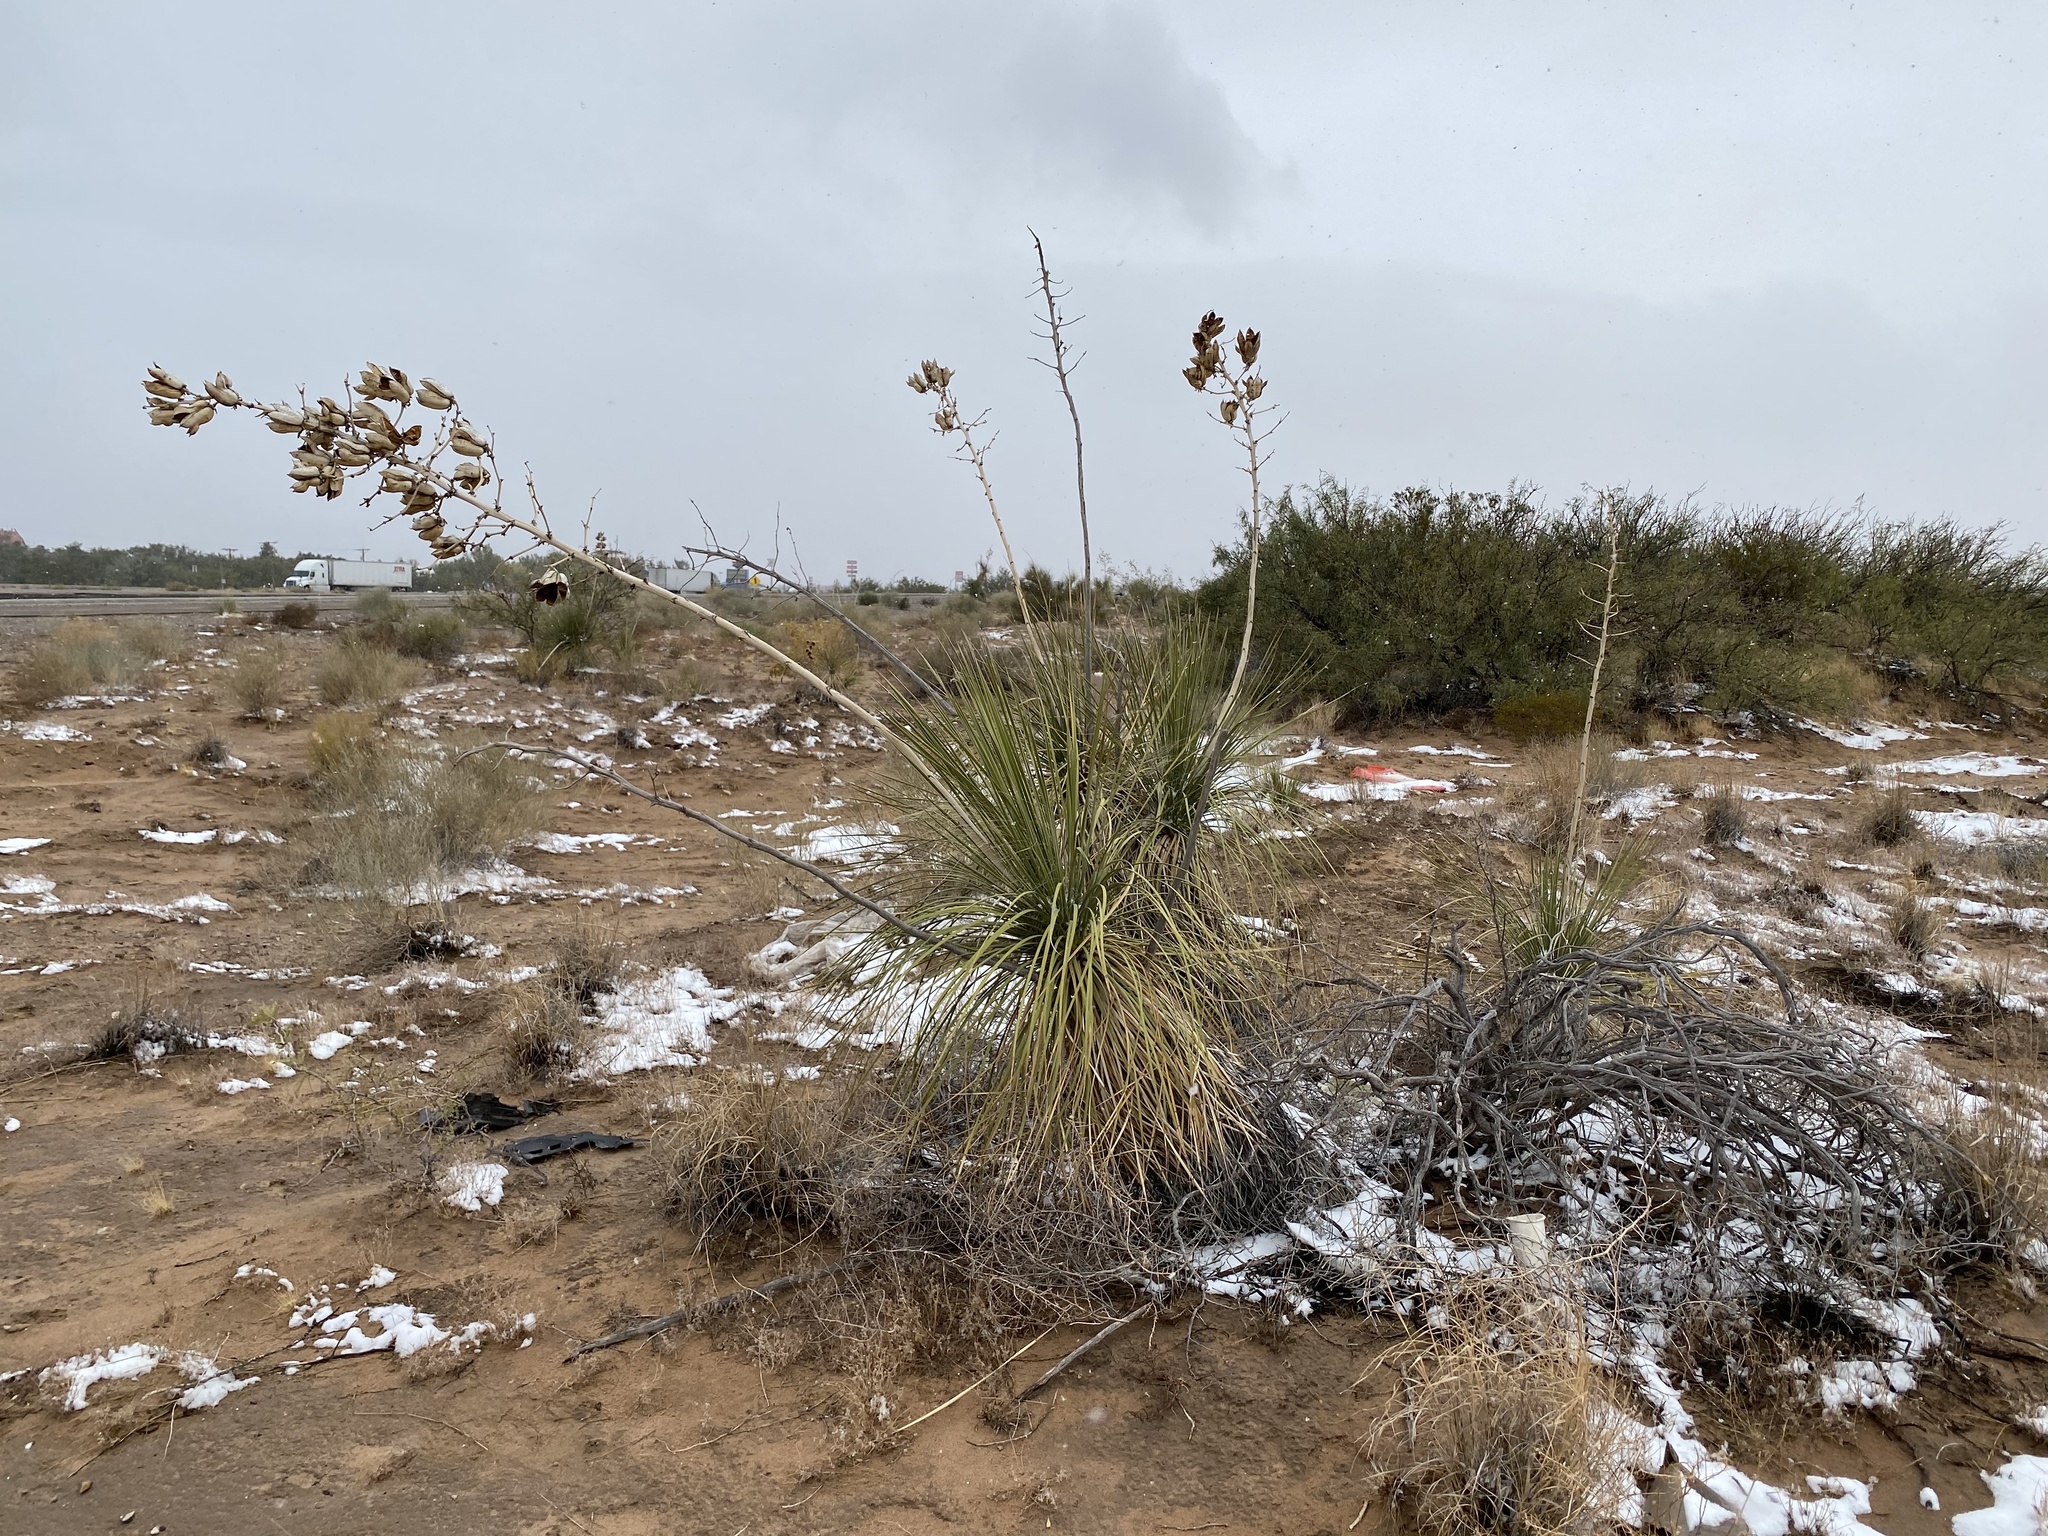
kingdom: Plantae
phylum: Tracheophyta
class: Liliopsida
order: Asparagales
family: Asparagaceae
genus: Yucca
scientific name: Yucca elata
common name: Palmella
